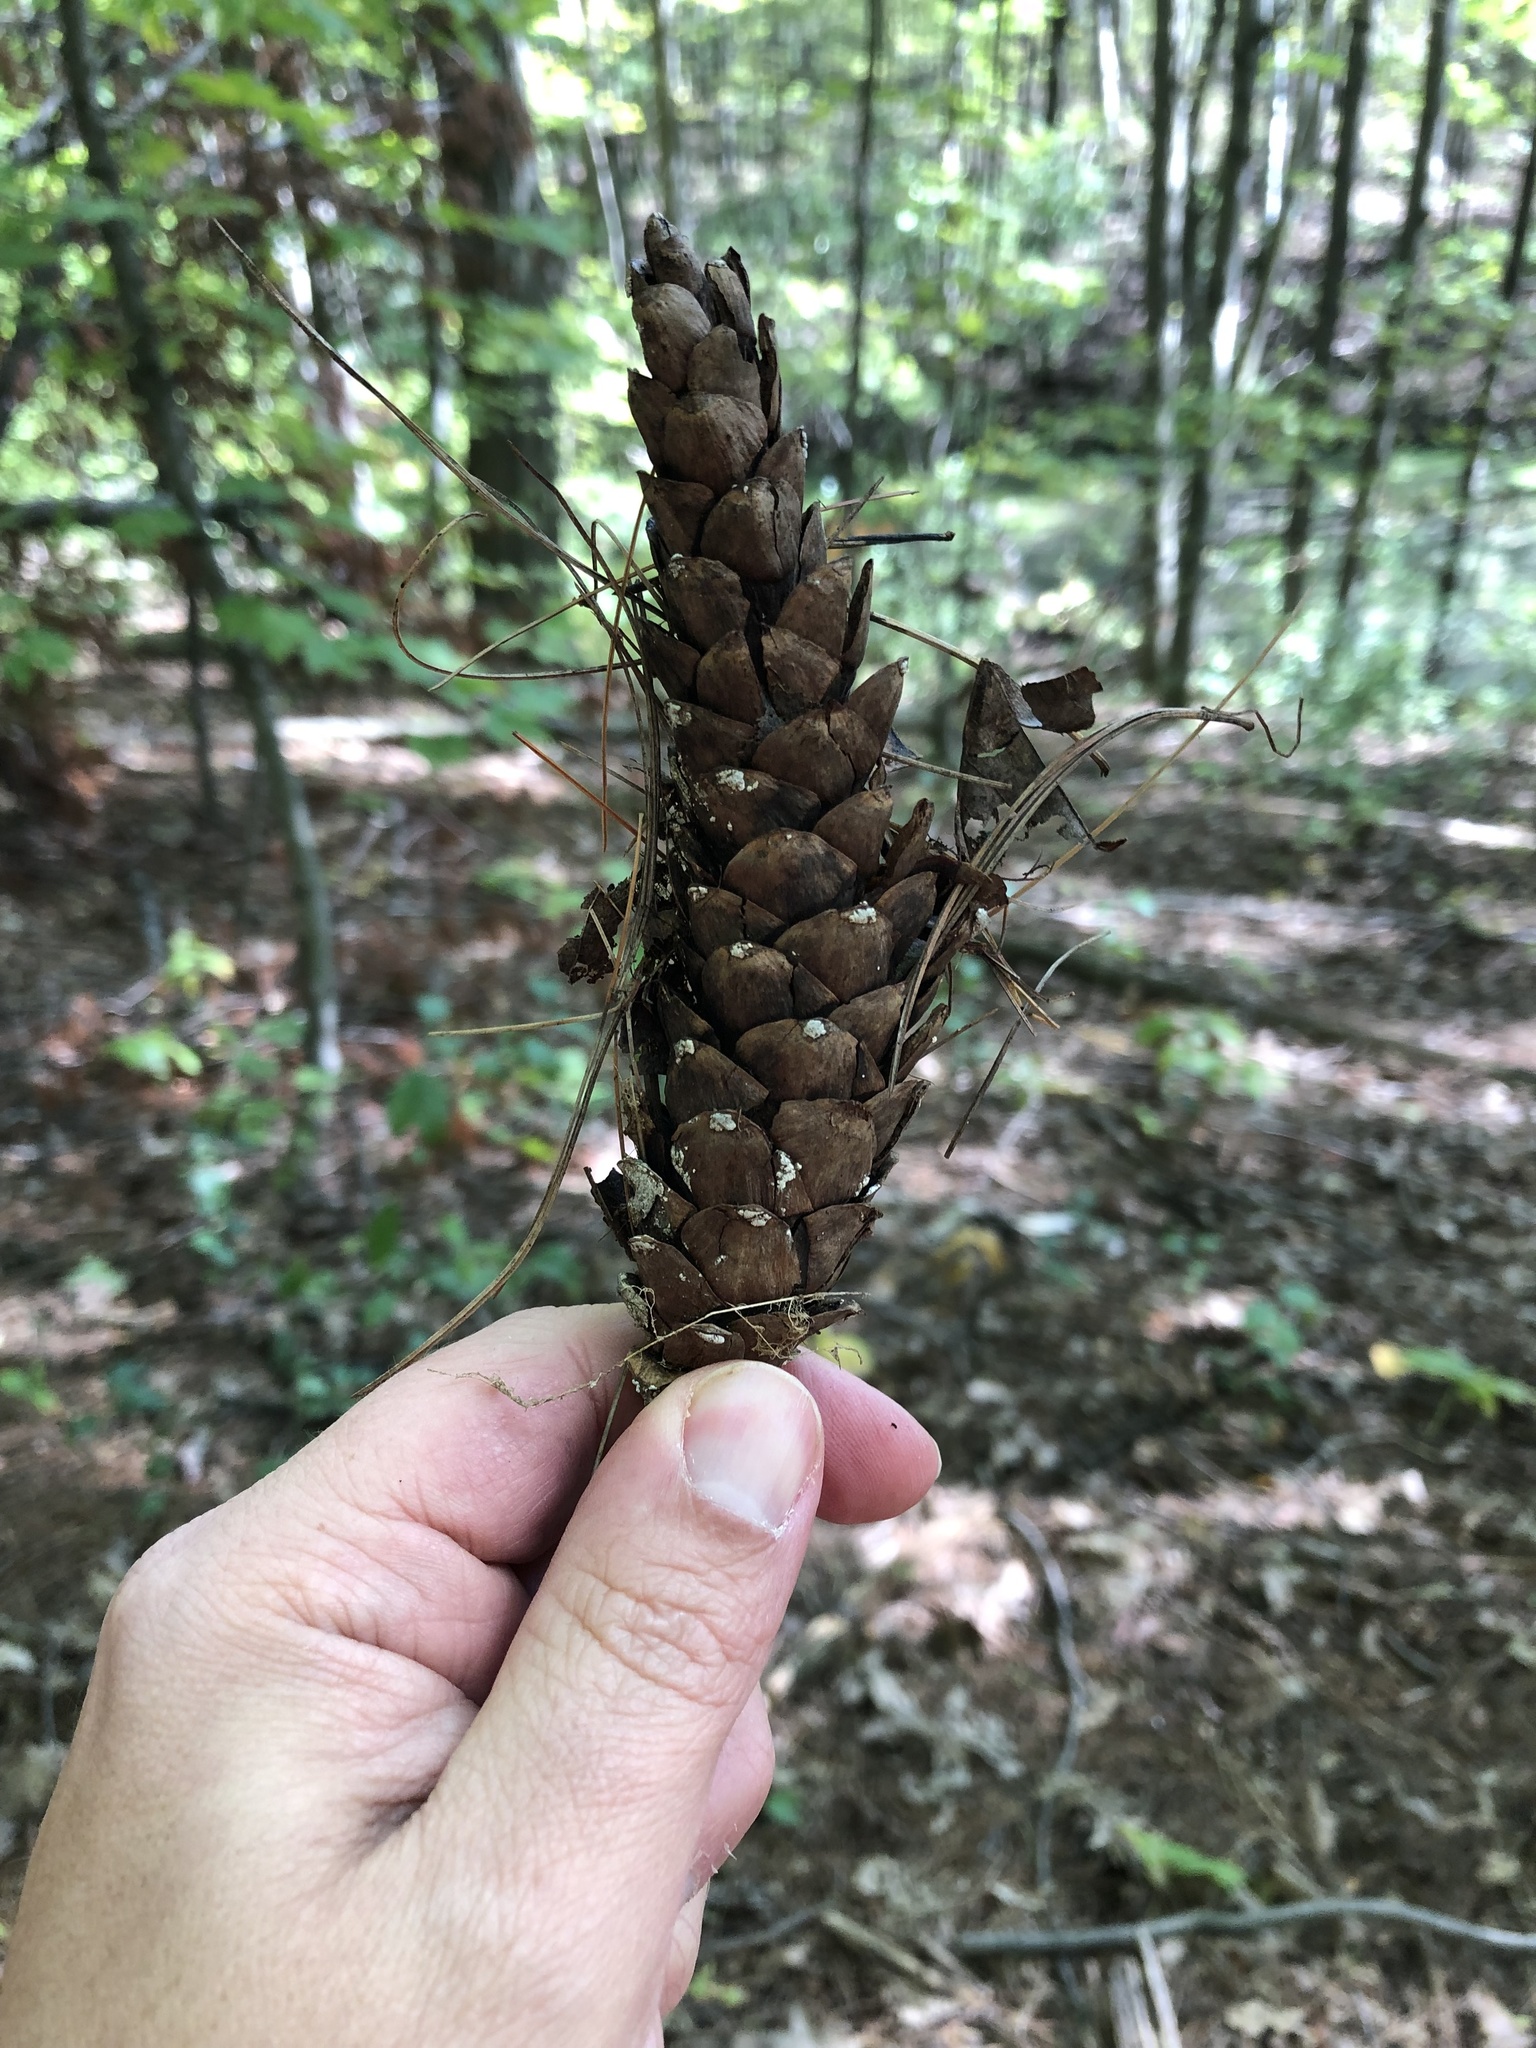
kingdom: Plantae
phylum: Tracheophyta
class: Pinopsida
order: Pinales
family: Pinaceae
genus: Pinus
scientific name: Pinus strobus
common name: Weymouth pine
